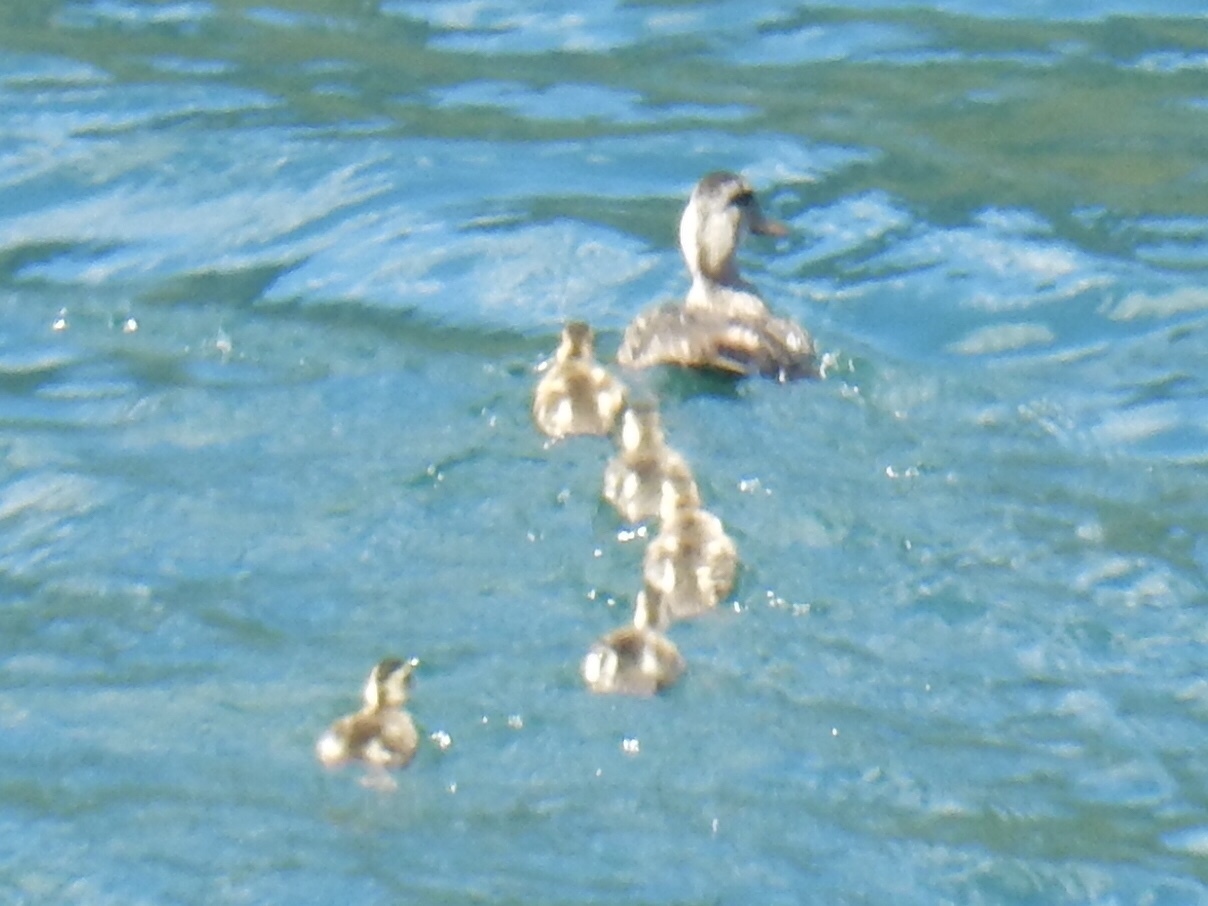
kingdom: Animalia
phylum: Chordata
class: Aves
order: Anseriformes
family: Anatidae
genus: Anas
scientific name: Anas platyrhynchos
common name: Mallard
